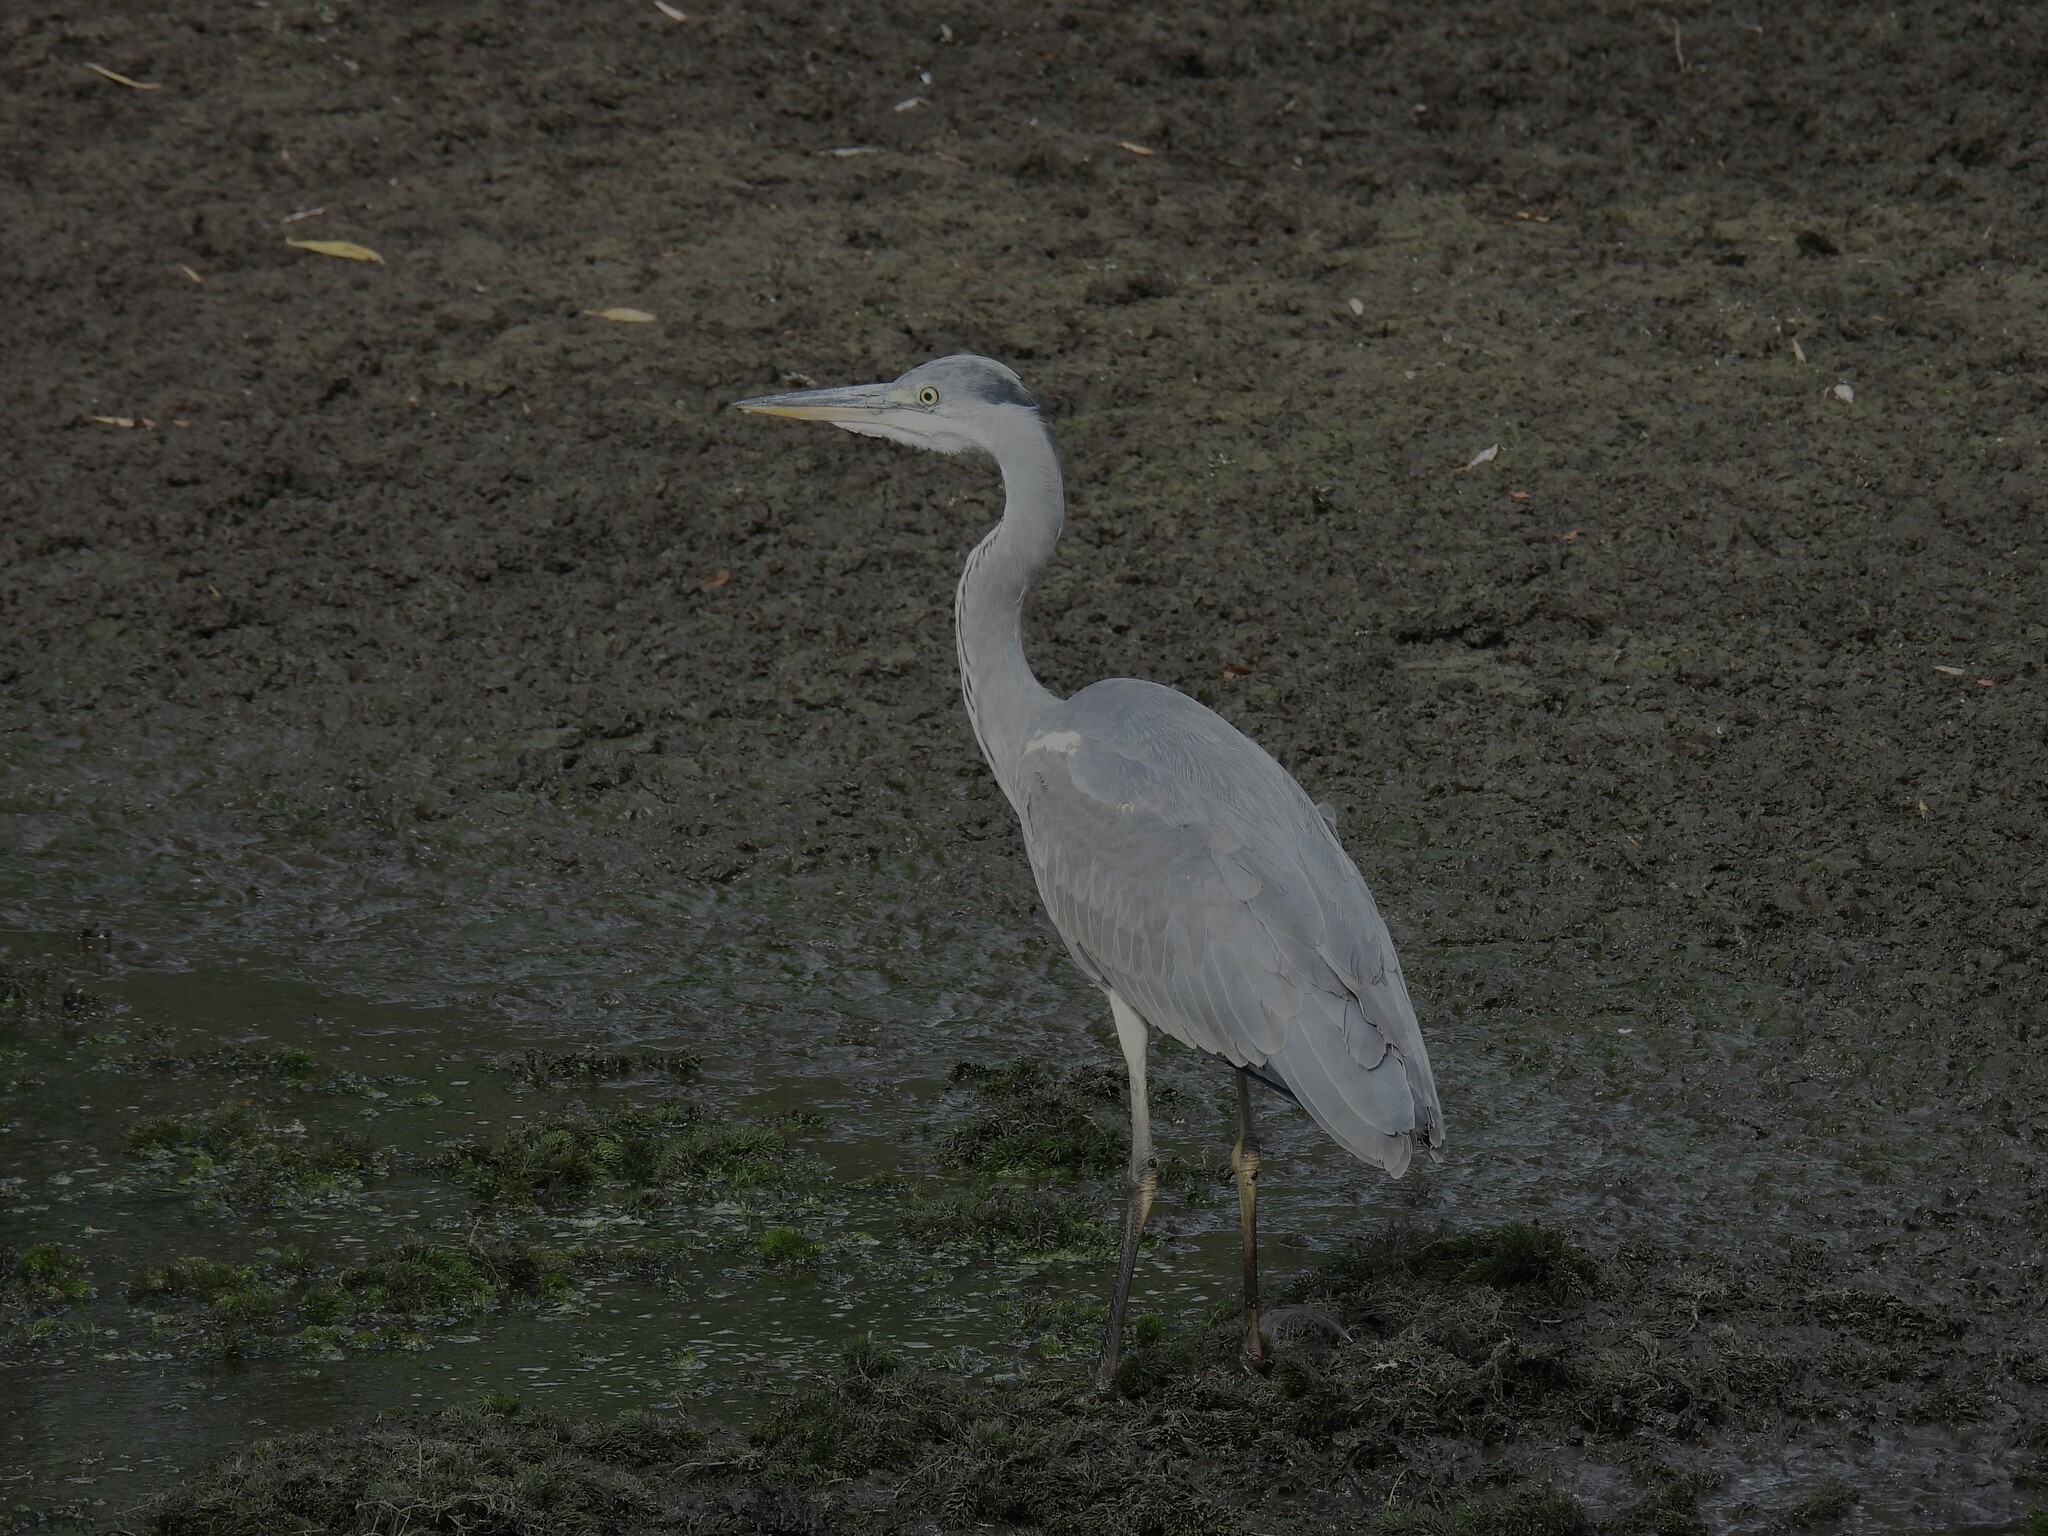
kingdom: Animalia
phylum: Chordata
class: Aves
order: Pelecaniformes
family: Ardeidae
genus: Ardea
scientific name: Ardea cinerea
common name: Grey heron
